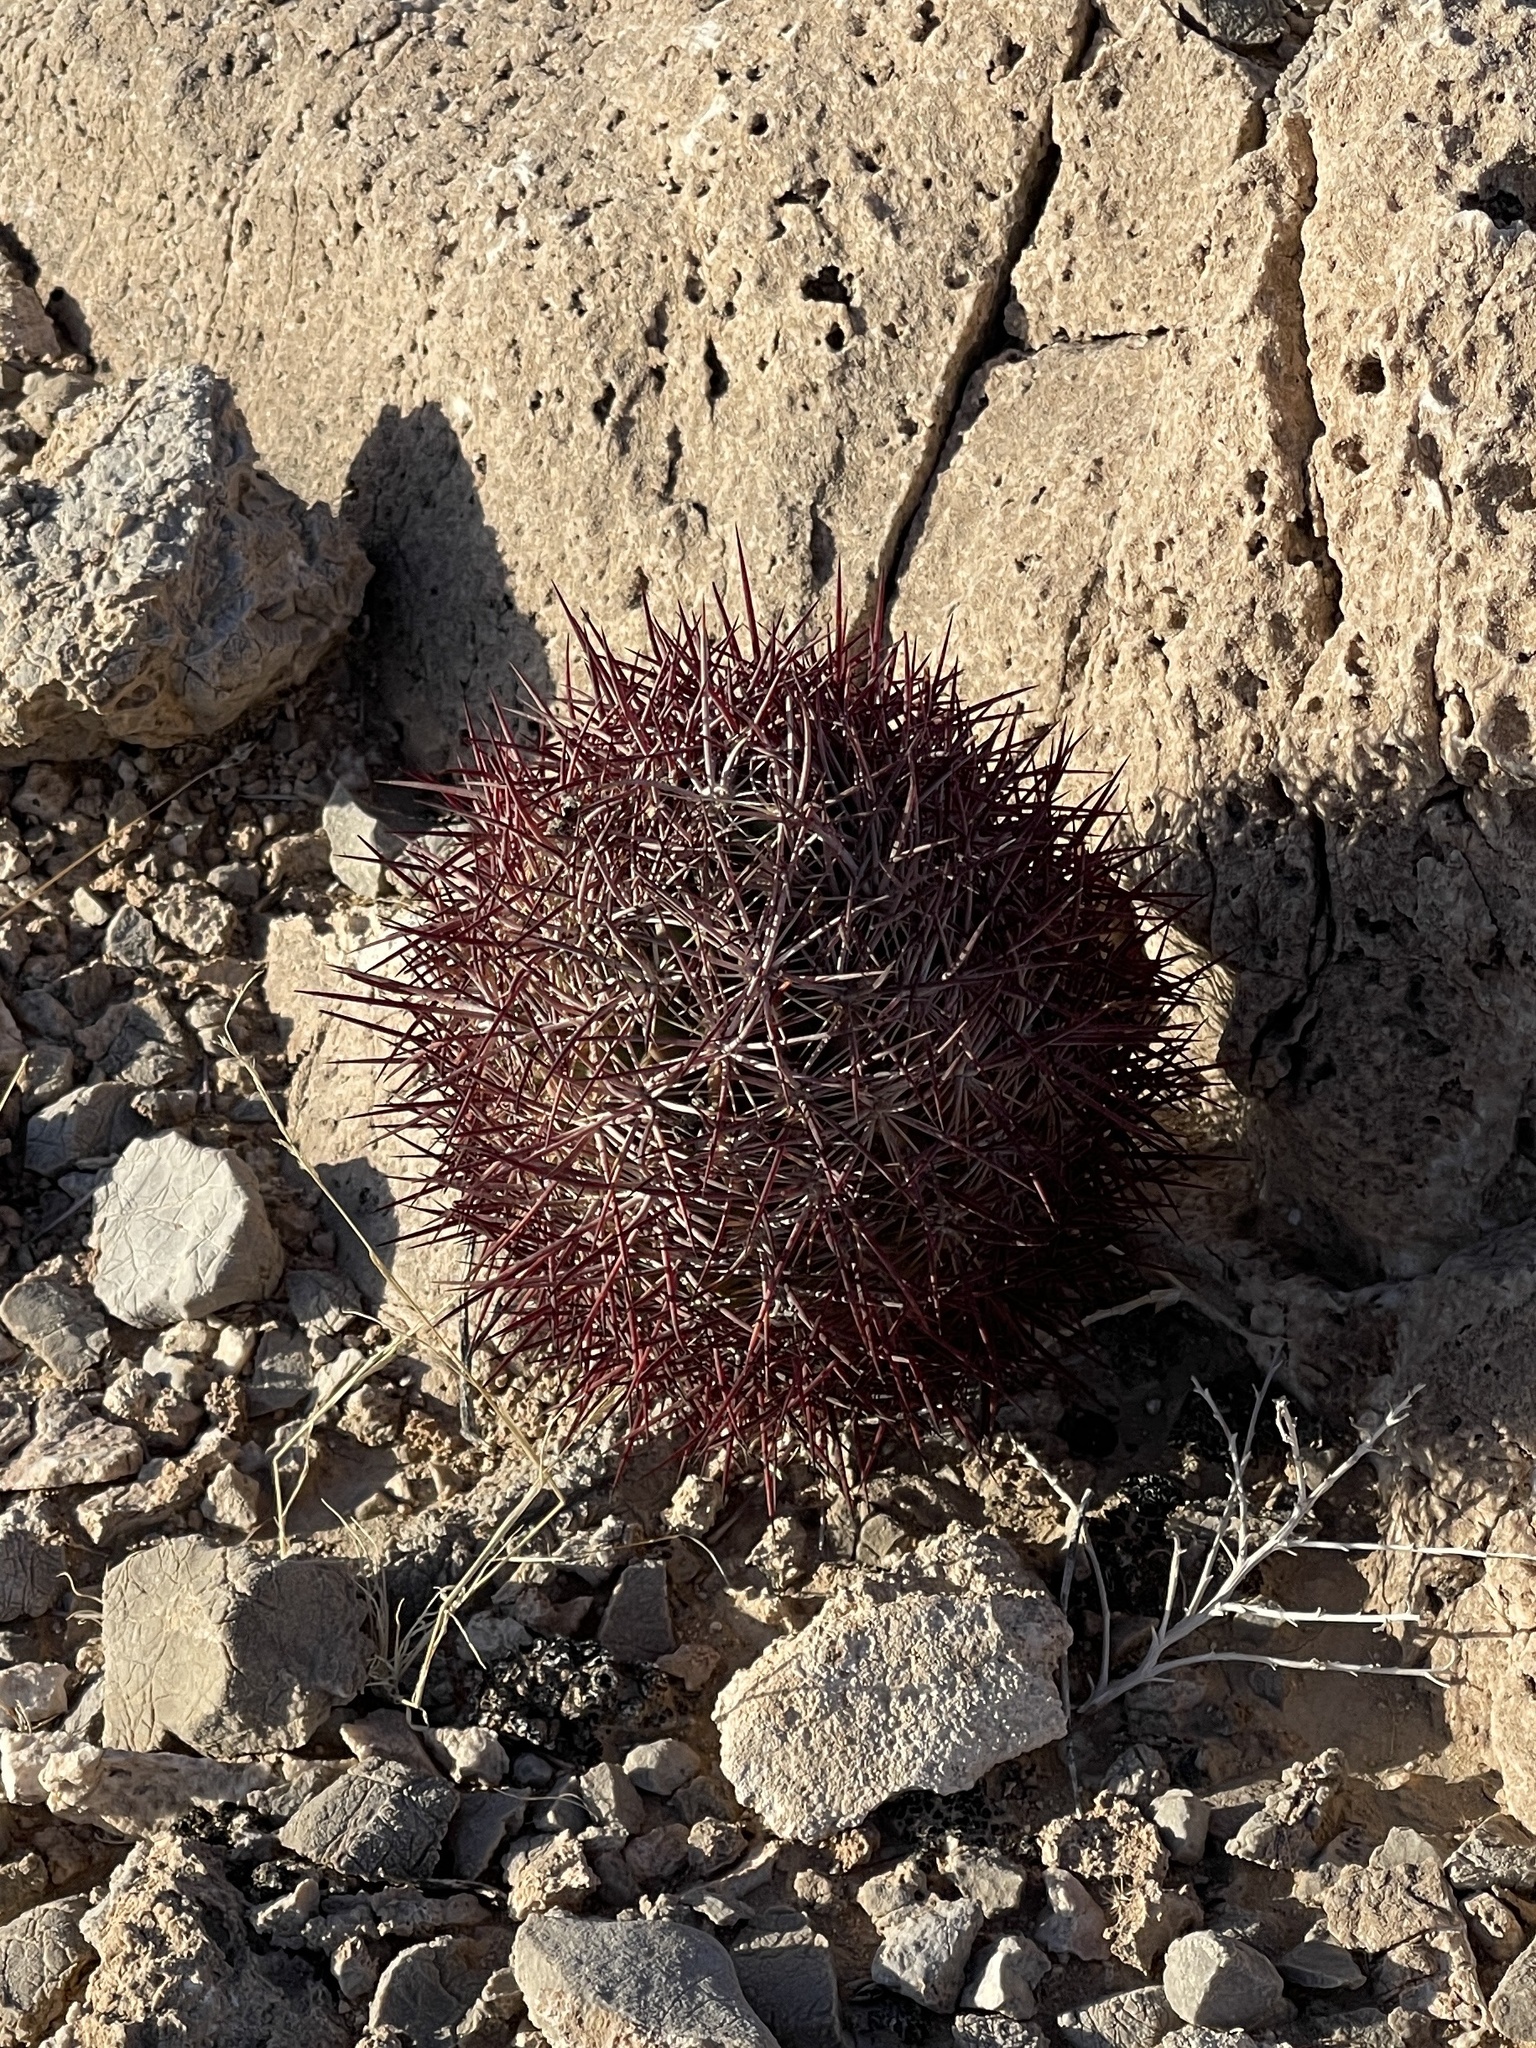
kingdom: Plantae
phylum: Tracheophyta
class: Magnoliopsida
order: Caryophyllales
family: Cactaceae
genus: Sclerocactus
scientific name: Sclerocactus johnsonii
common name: Eight-spine fishhook cactus
